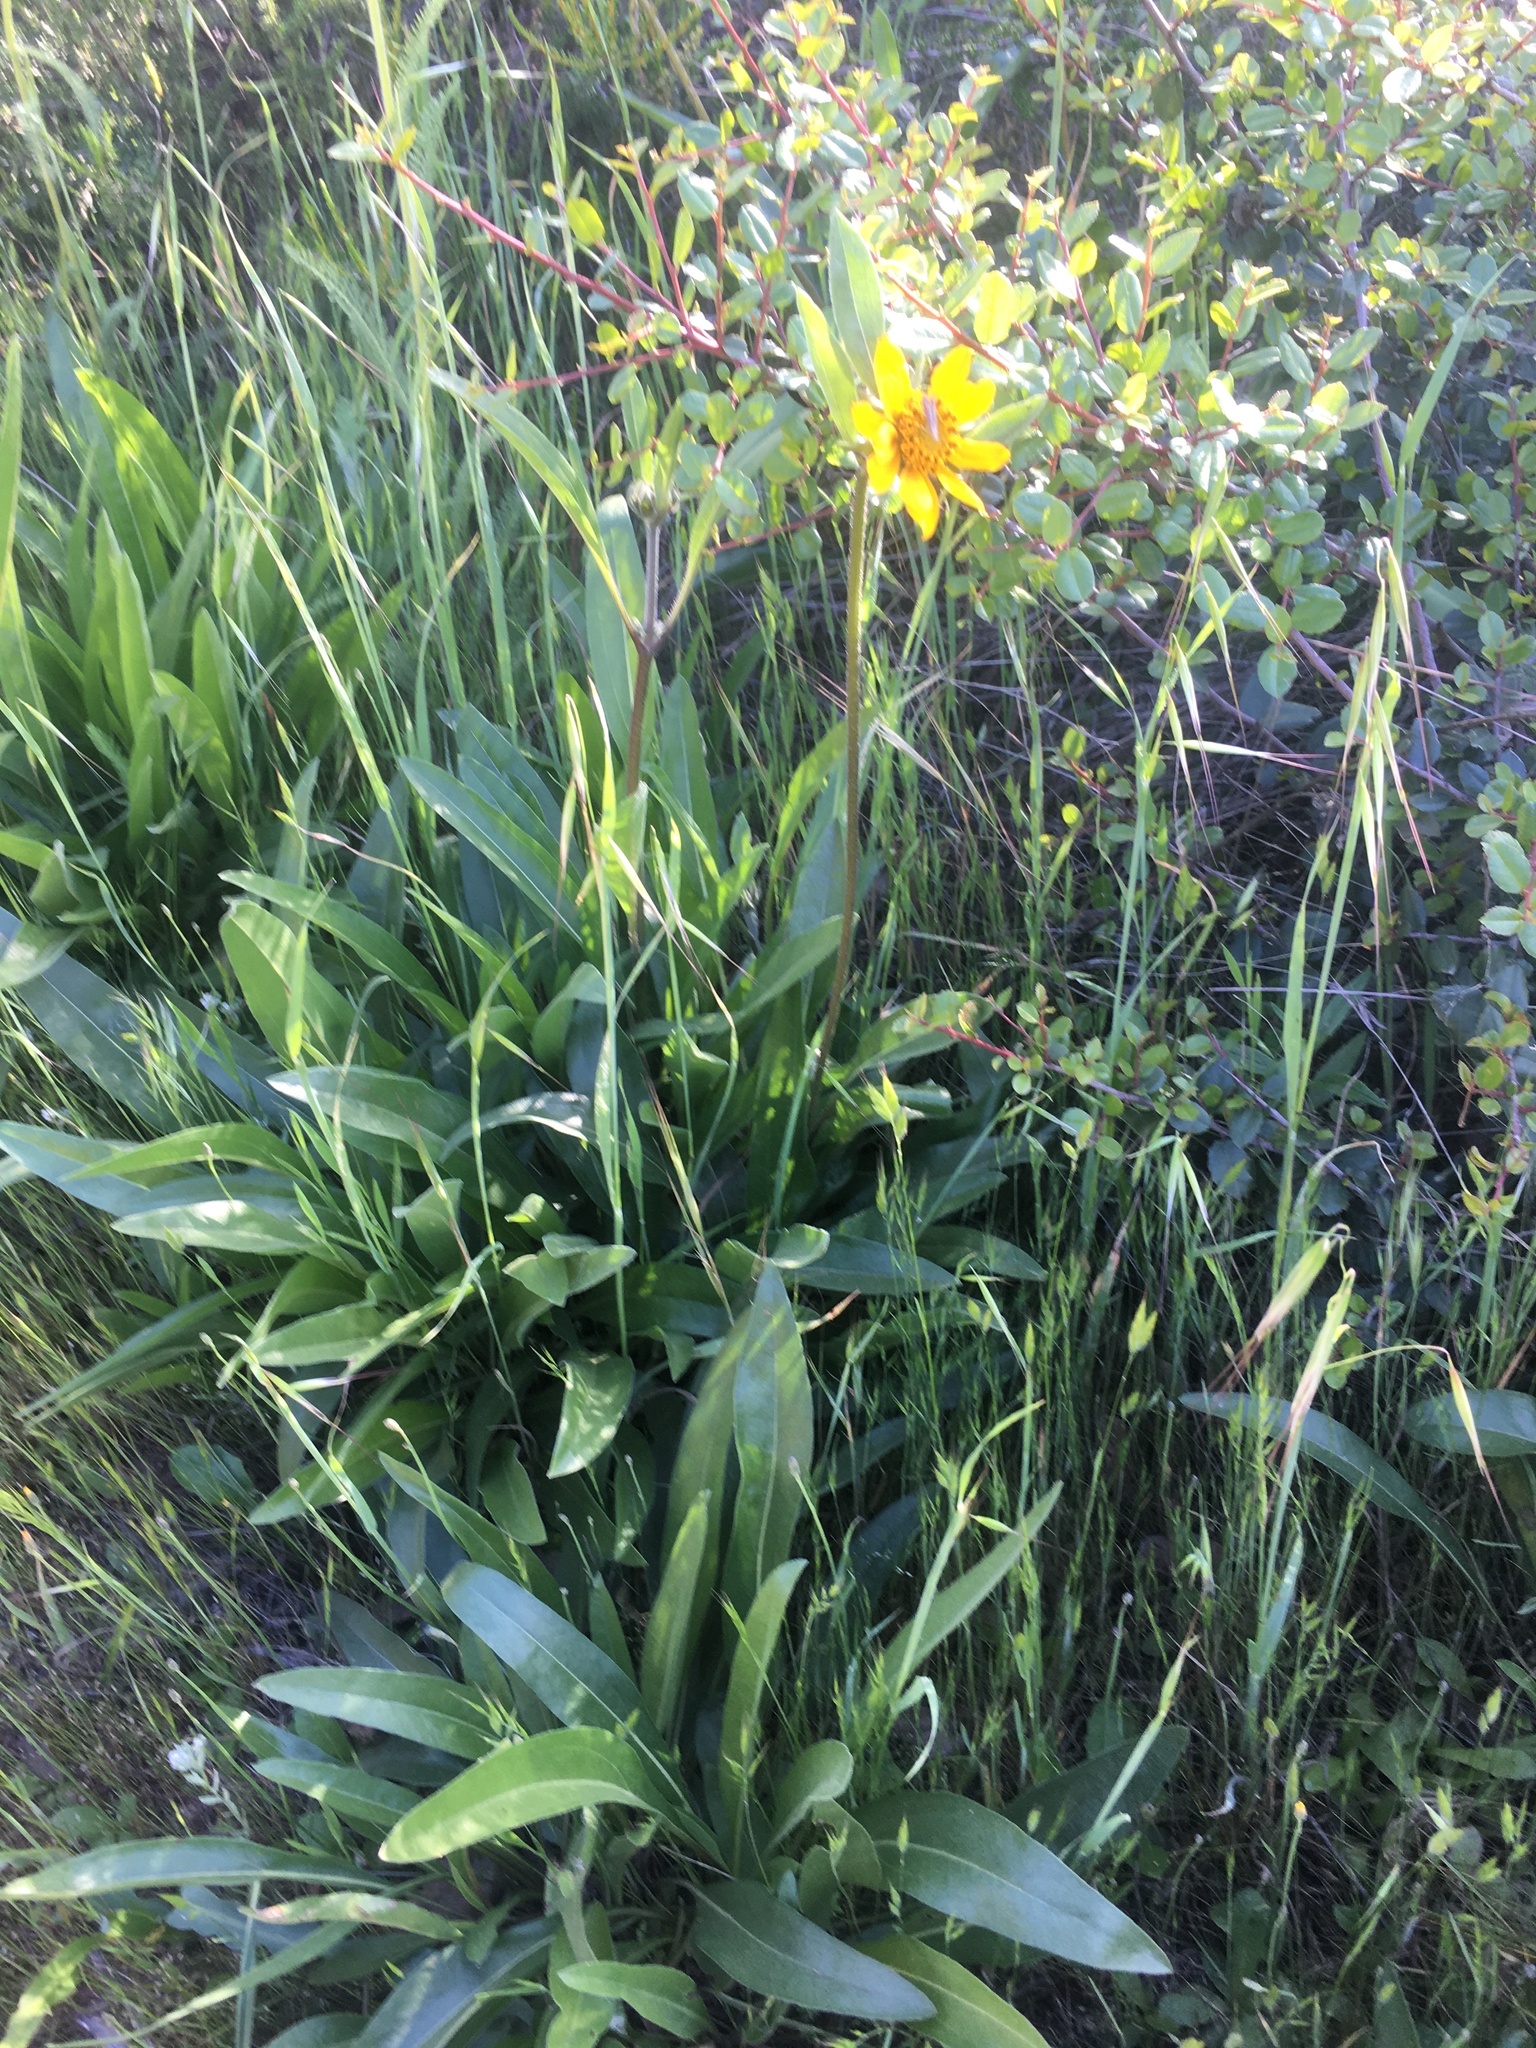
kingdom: Plantae
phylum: Tracheophyta
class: Magnoliopsida
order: Asterales
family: Asteraceae
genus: Helianthella
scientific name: Helianthella californica
